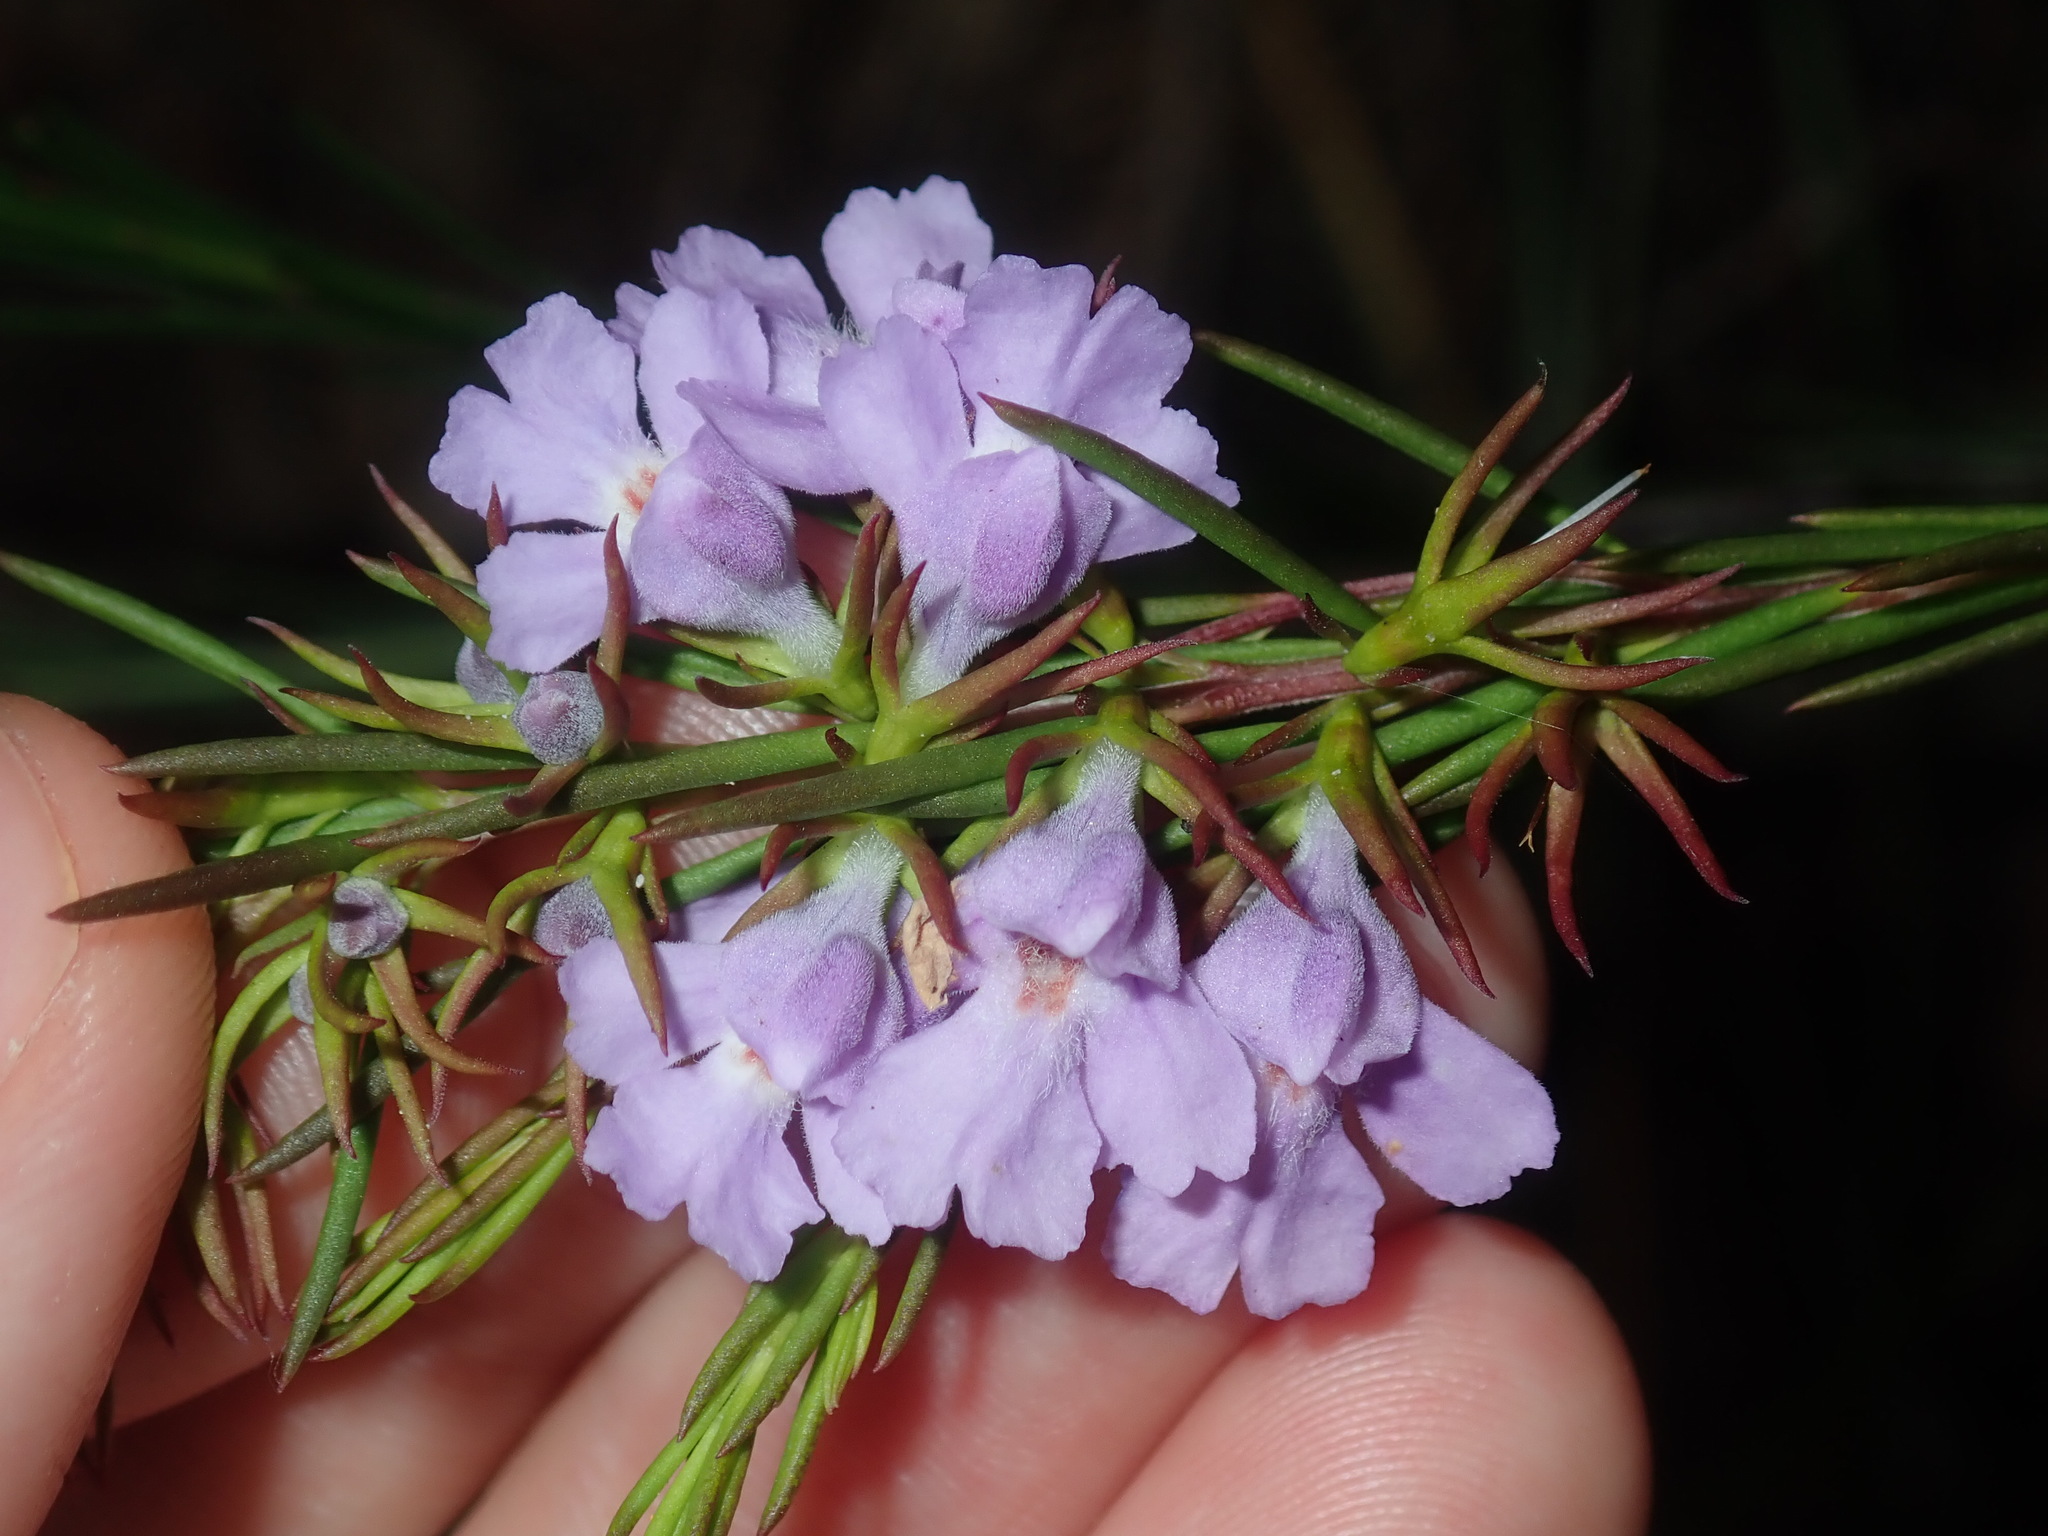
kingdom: Plantae
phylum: Tracheophyta
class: Magnoliopsida
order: Lamiales
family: Lamiaceae
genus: Hemigenia
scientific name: Hemigenia purpurea
